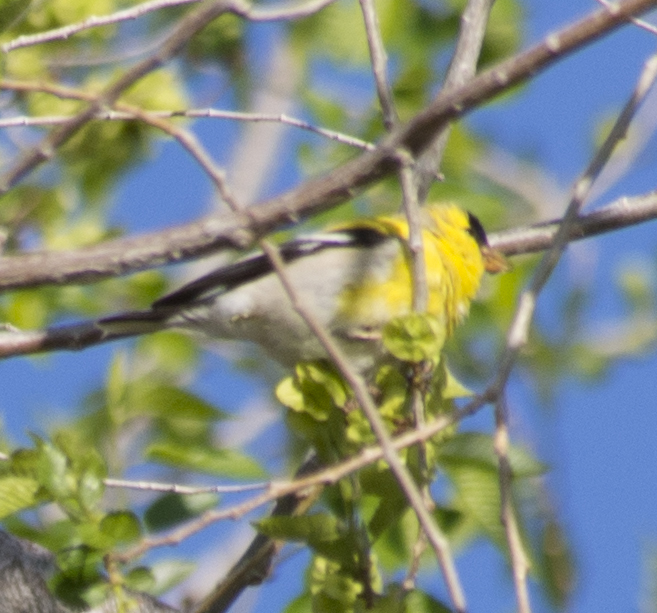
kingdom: Animalia
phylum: Chordata
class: Aves
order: Passeriformes
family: Fringillidae
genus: Spinus
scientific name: Spinus tristis
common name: American goldfinch
